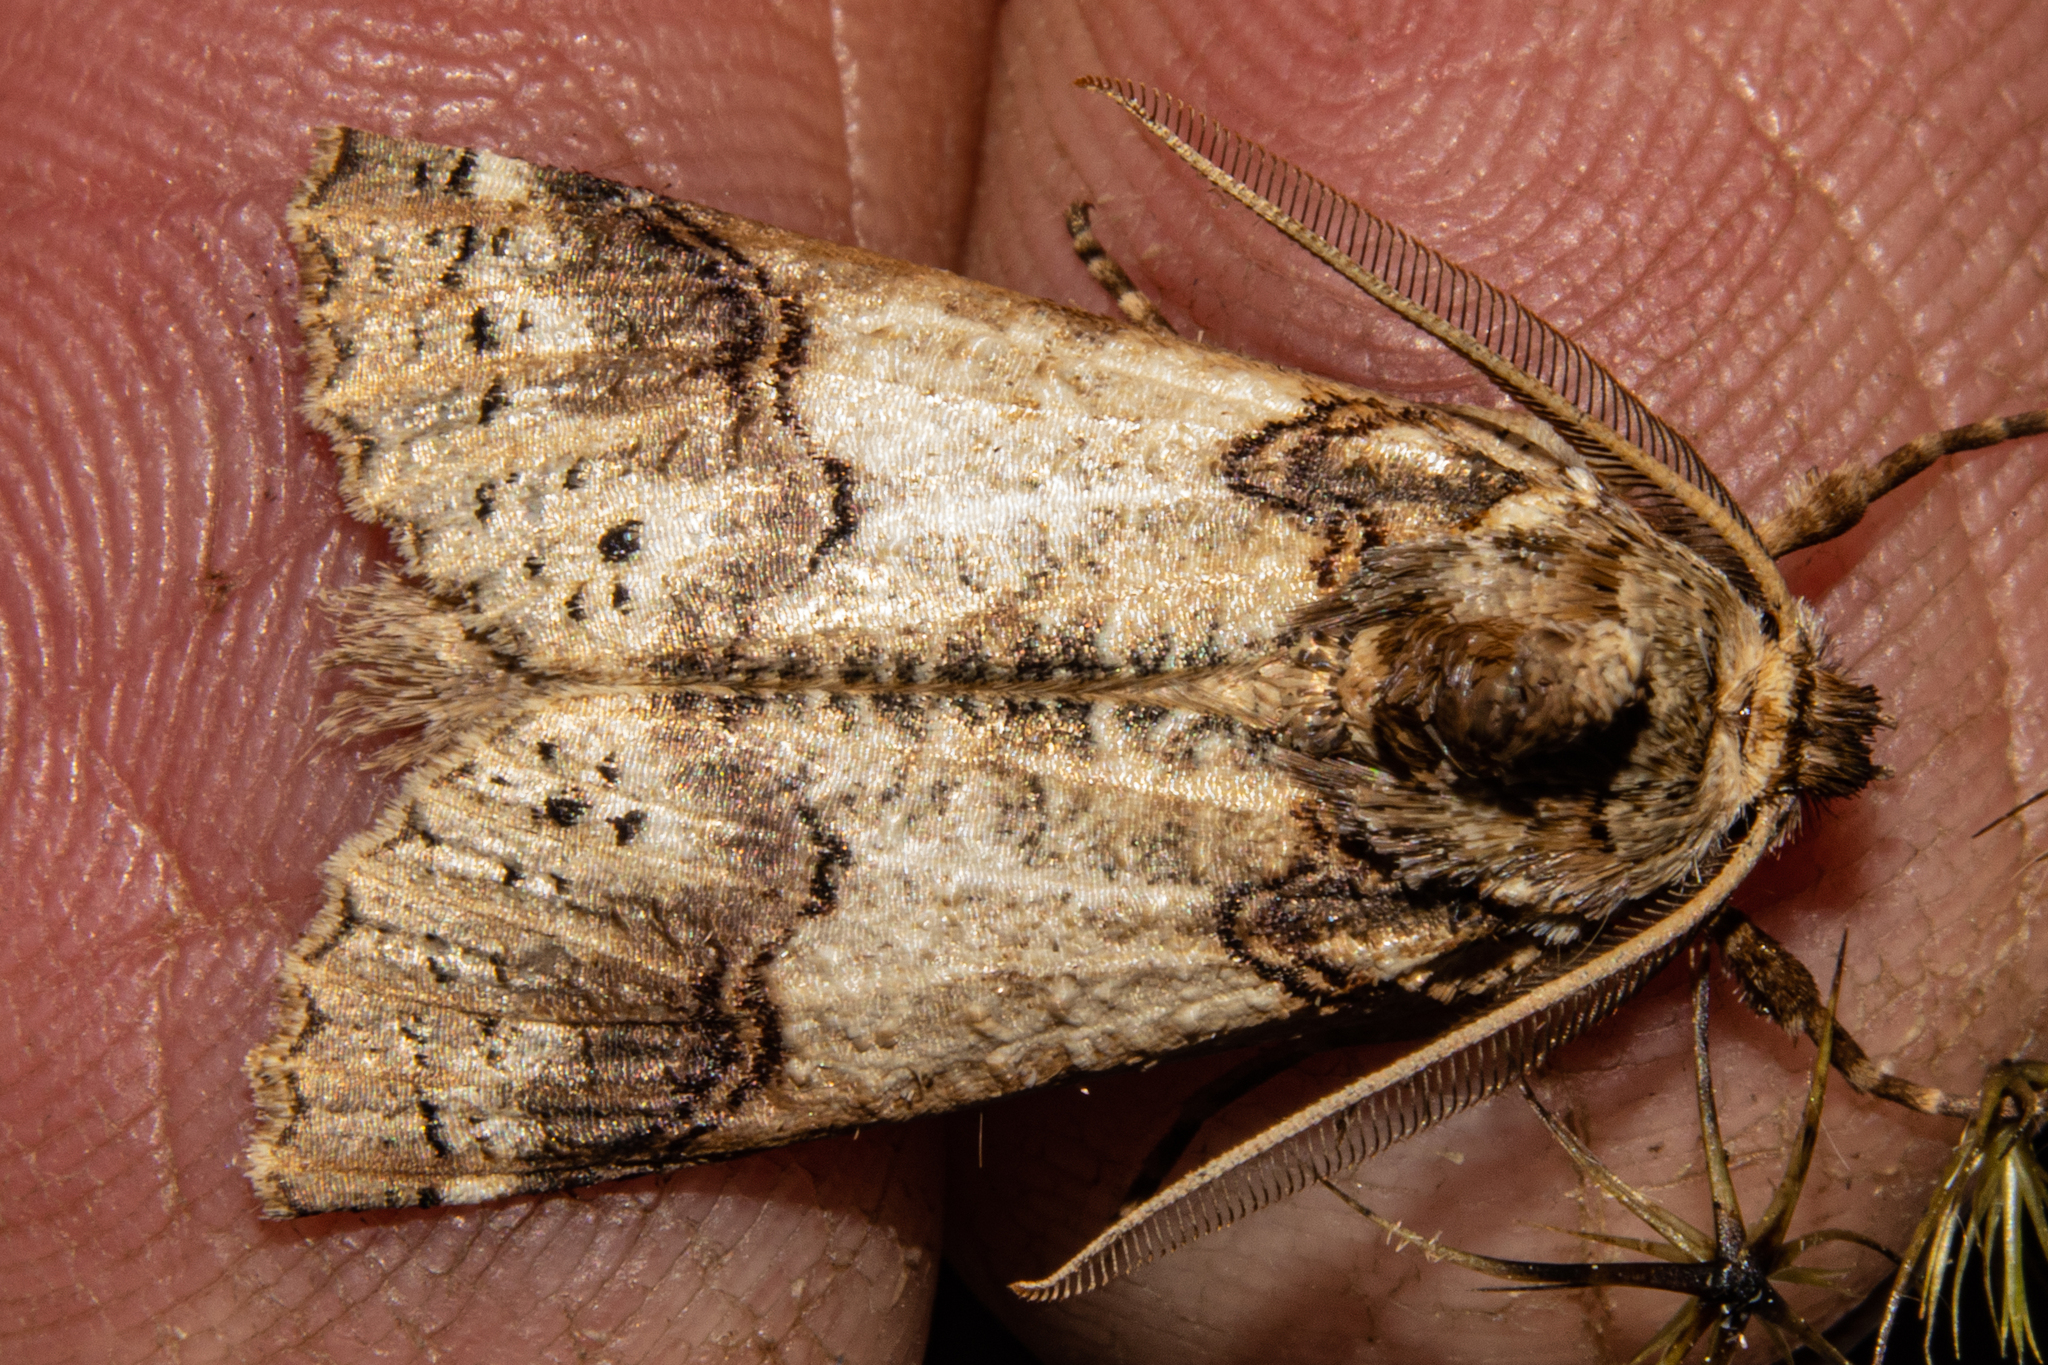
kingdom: Animalia
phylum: Arthropoda
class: Insecta
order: Lepidoptera
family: Geometridae
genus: Declana
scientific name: Declana
